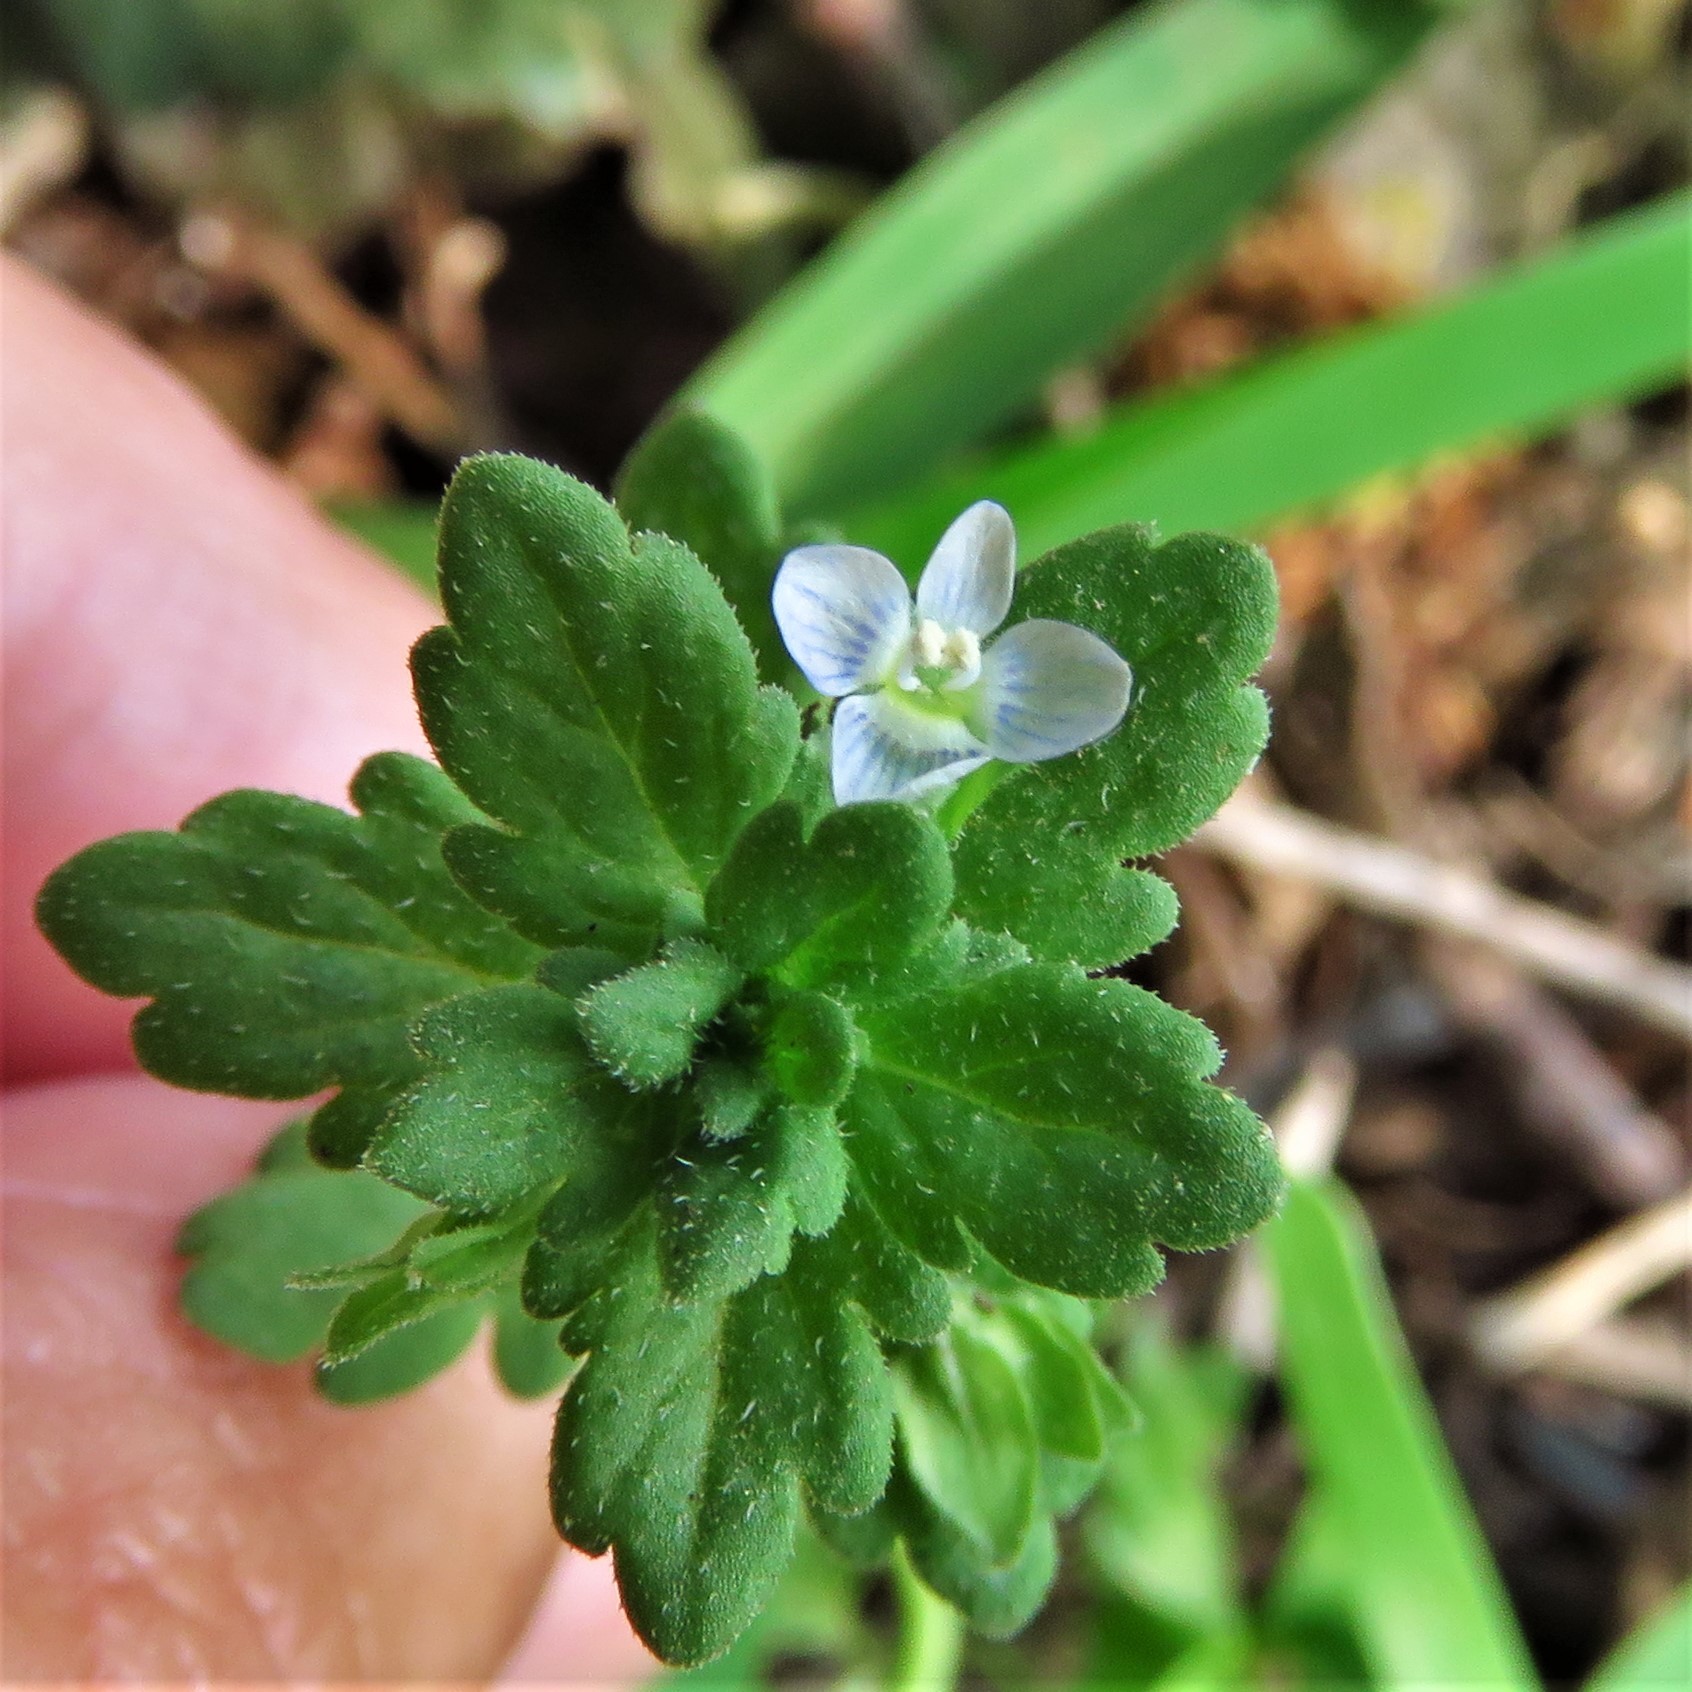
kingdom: Plantae
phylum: Tracheophyta
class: Magnoliopsida
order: Lamiales
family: Plantaginaceae
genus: Veronica
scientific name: Veronica polita
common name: Grey field-speedwell
